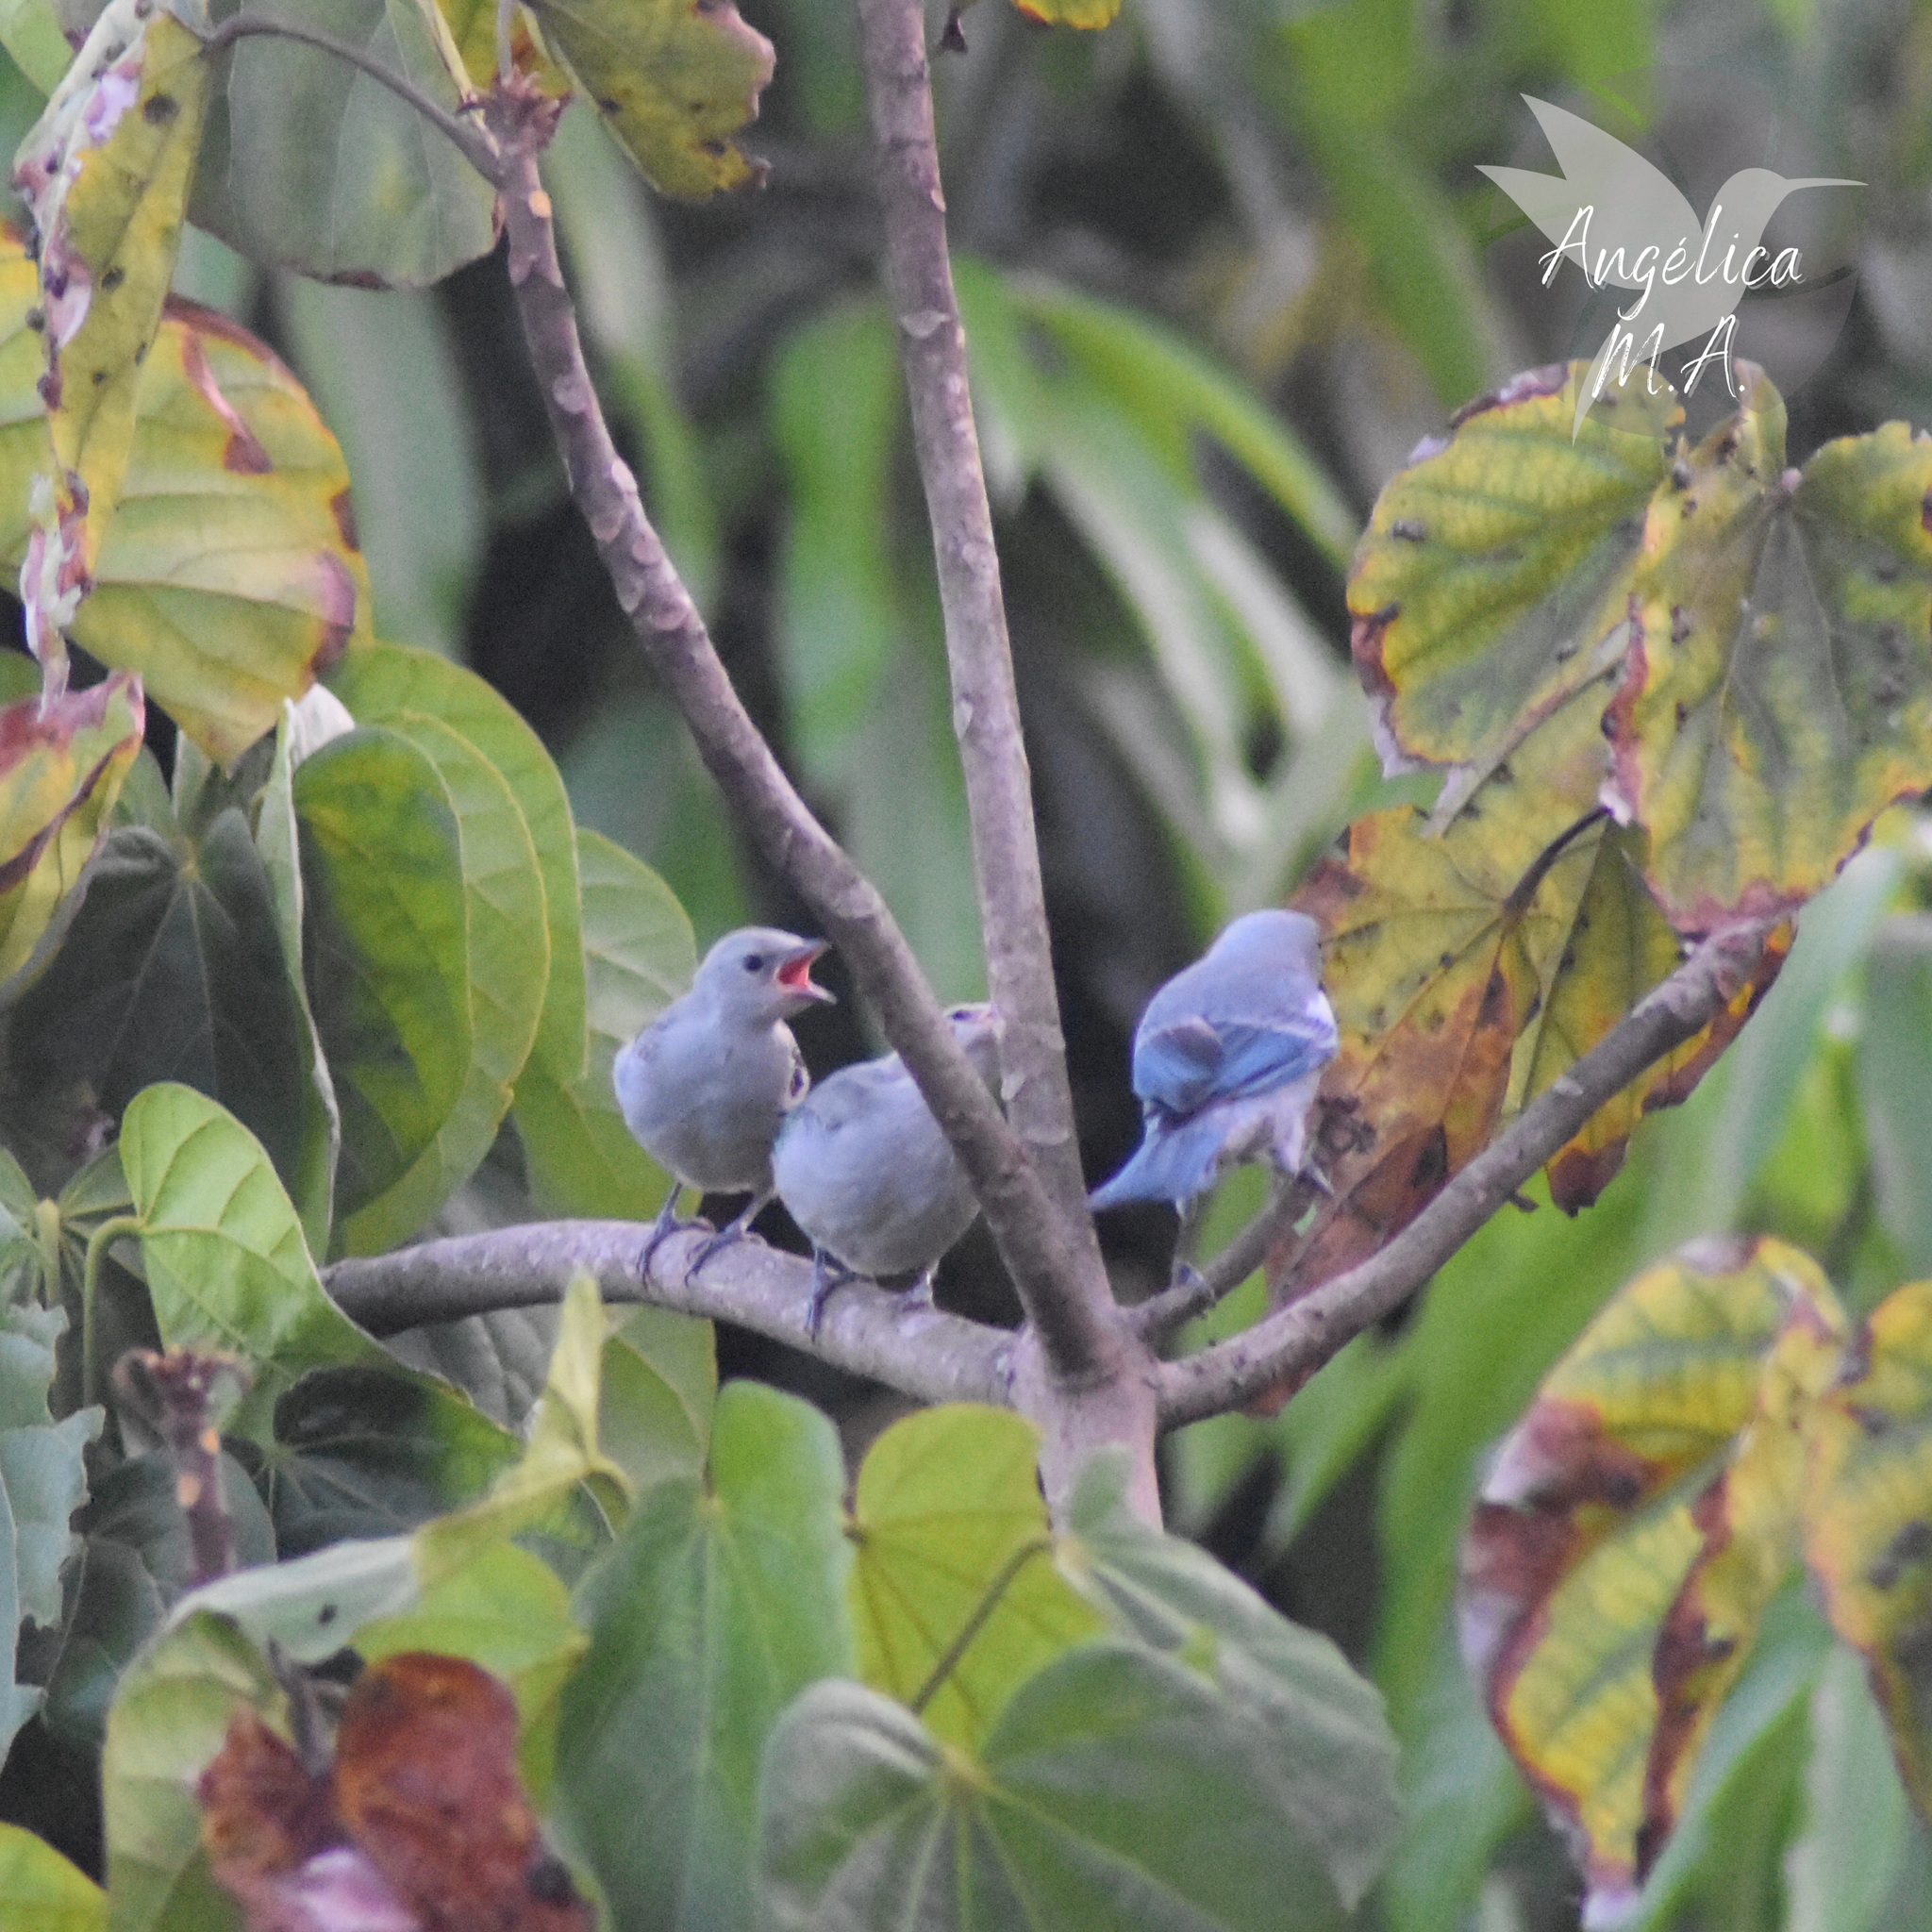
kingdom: Animalia
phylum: Chordata
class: Aves
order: Passeriformes
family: Thraupidae
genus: Thraupis
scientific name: Thraupis episcopus
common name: Blue-grey tanager
